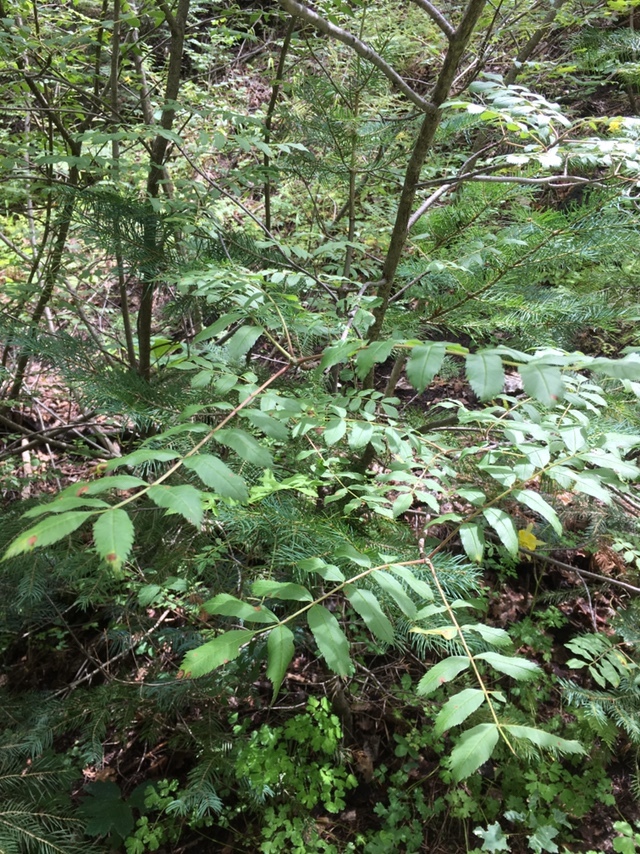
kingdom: Plantae
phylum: Tracheophyta
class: Magnoliopsida
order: Rosales
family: Rosaceae
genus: Sorbus
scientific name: Sorbus scopulina
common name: Greene's mountain-ash
